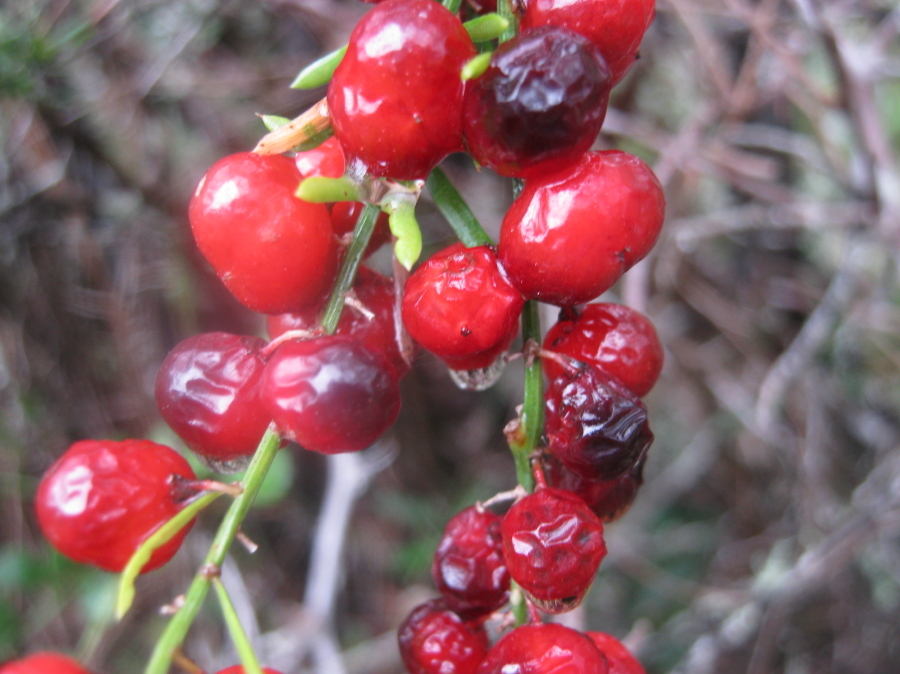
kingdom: Plantae
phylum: Tracheophyta
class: Liliopsida
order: Asparagales
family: Asparagaceae
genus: Asparagus
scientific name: Asparagus densiflorus
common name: Asparagus fern
